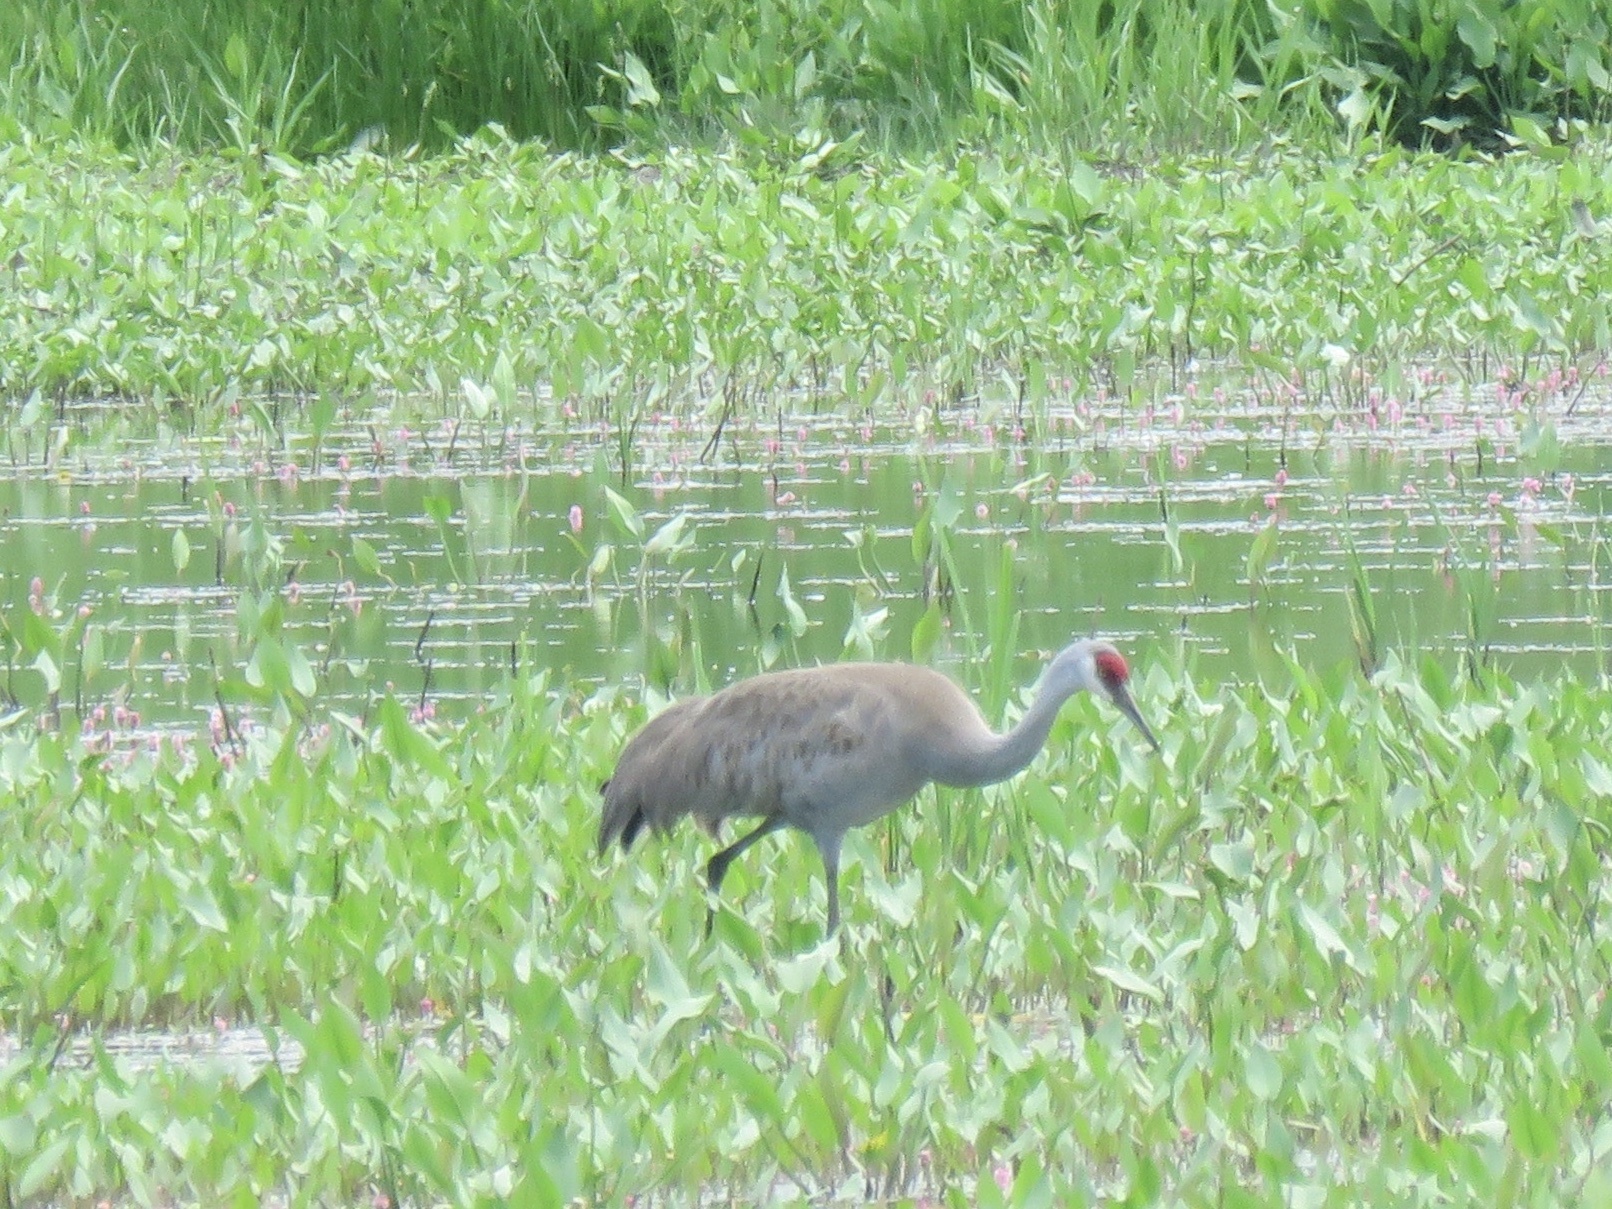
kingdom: Animalia
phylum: Chordata
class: Aves
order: Gruiformes
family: Gruidae
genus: Grus
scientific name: Grus canadensis
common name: Sandhill crane
